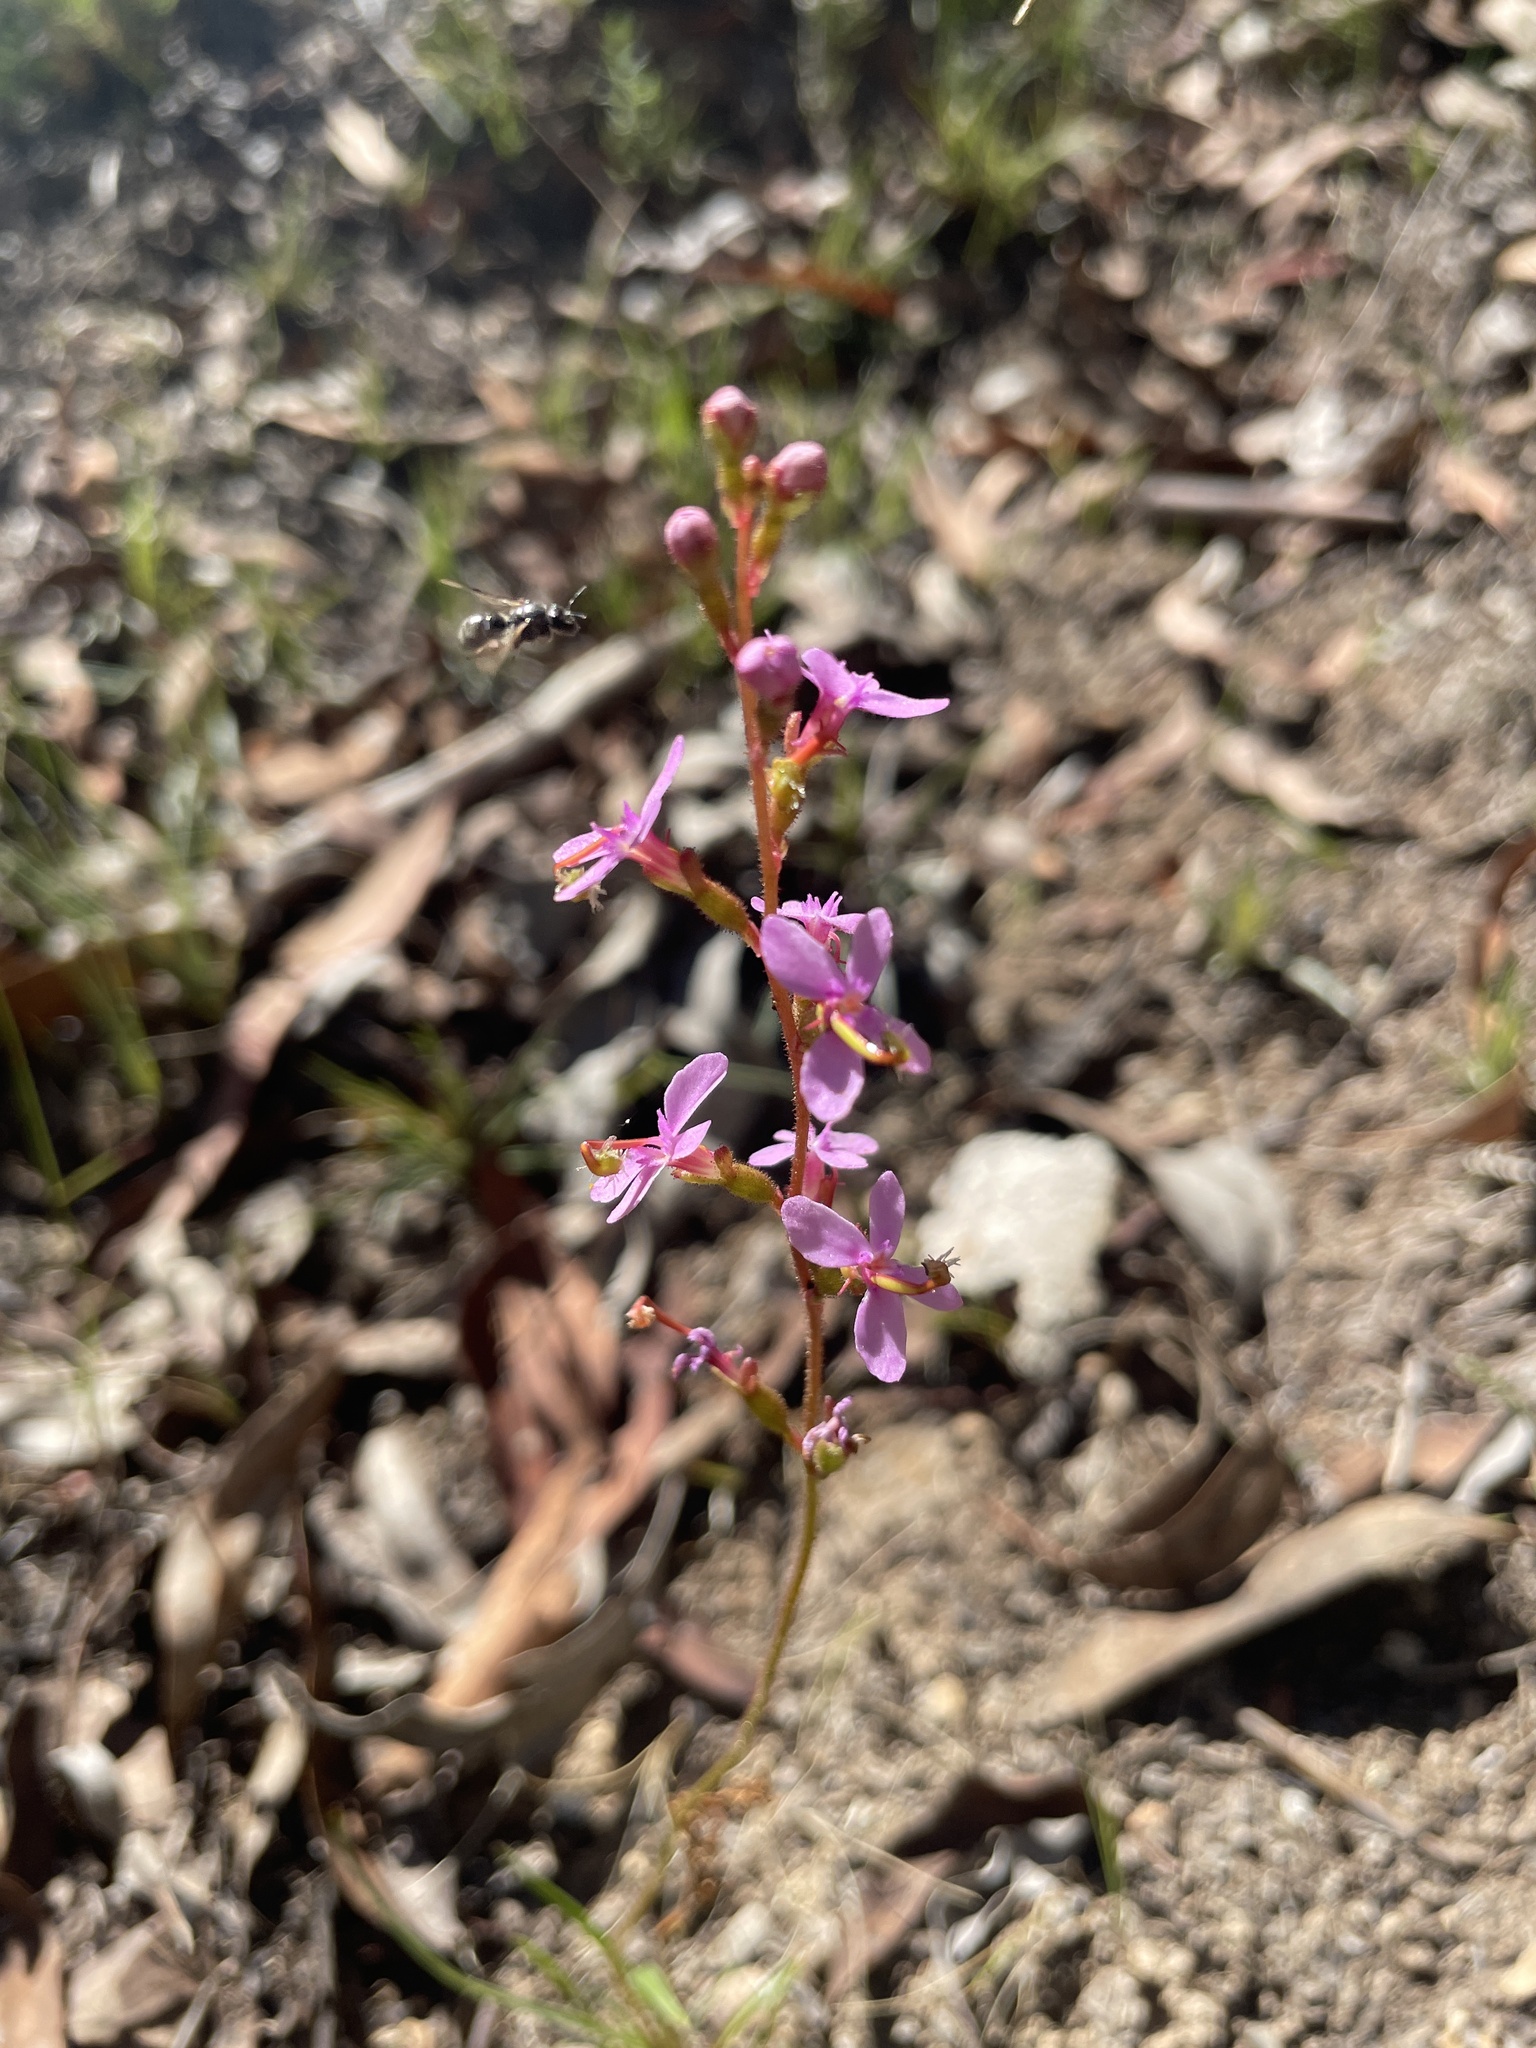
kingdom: Plantae
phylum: Tracheophyta
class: Magnoliopsida
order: Asterales
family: Stylidiaceae
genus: Stylidium
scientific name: Stylidium
